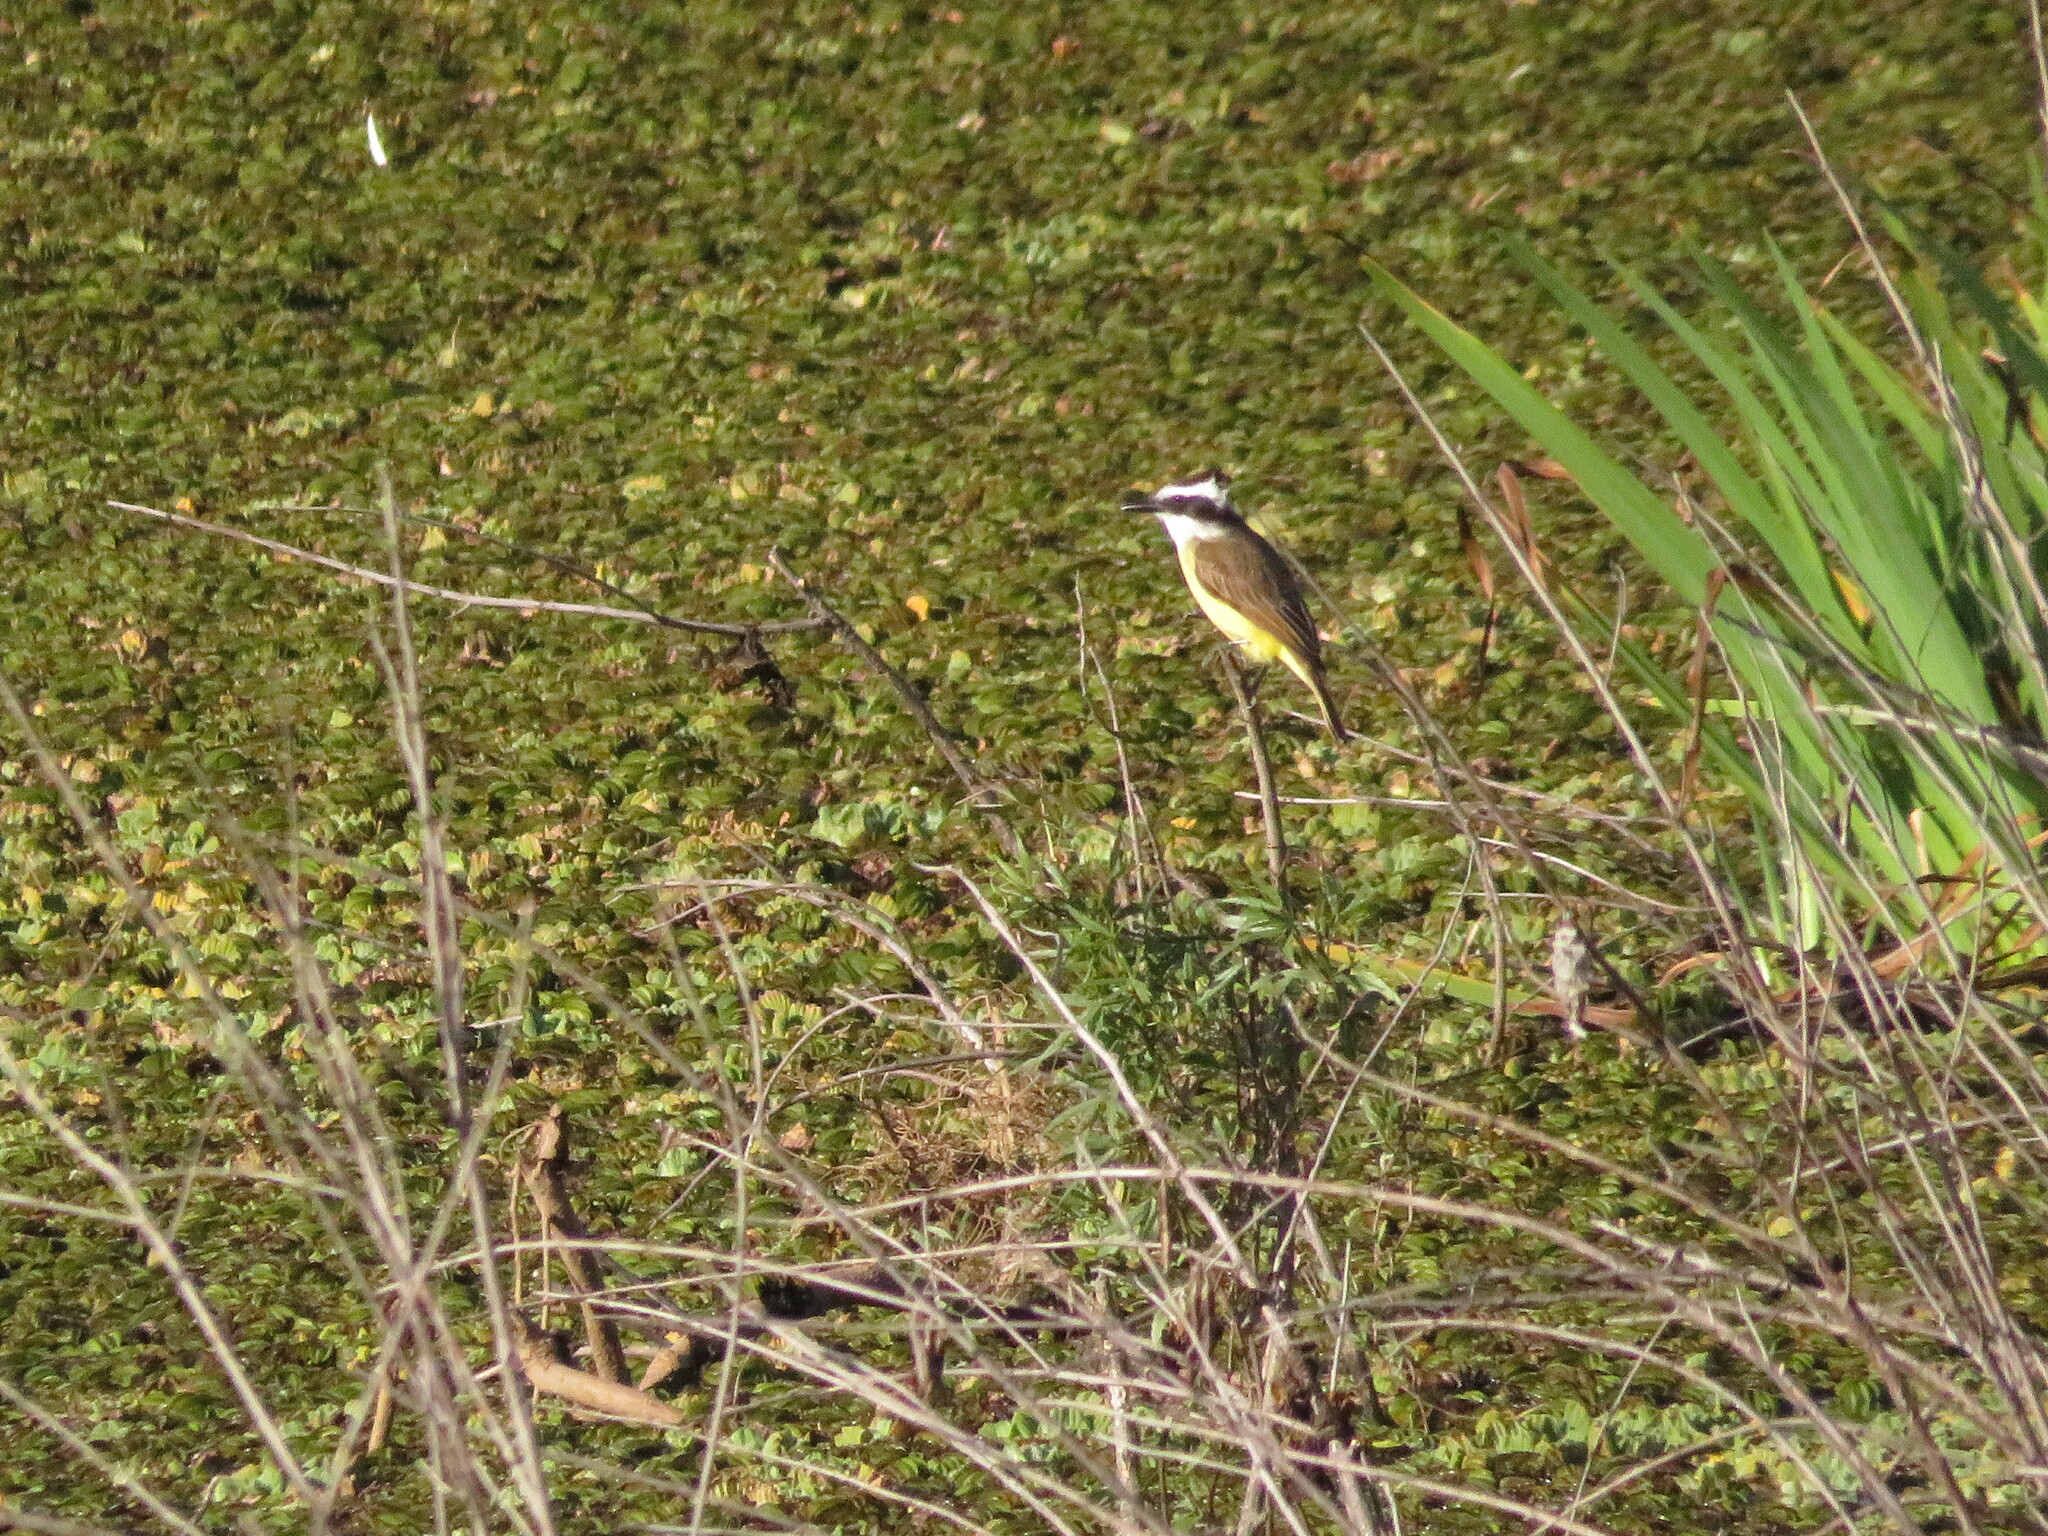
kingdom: Animalia
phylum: Chordata
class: Aves
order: Passeriformes
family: Tyrannidae
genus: Pitangus
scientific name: Pitangus sulphuratus
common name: Great kiskadee
